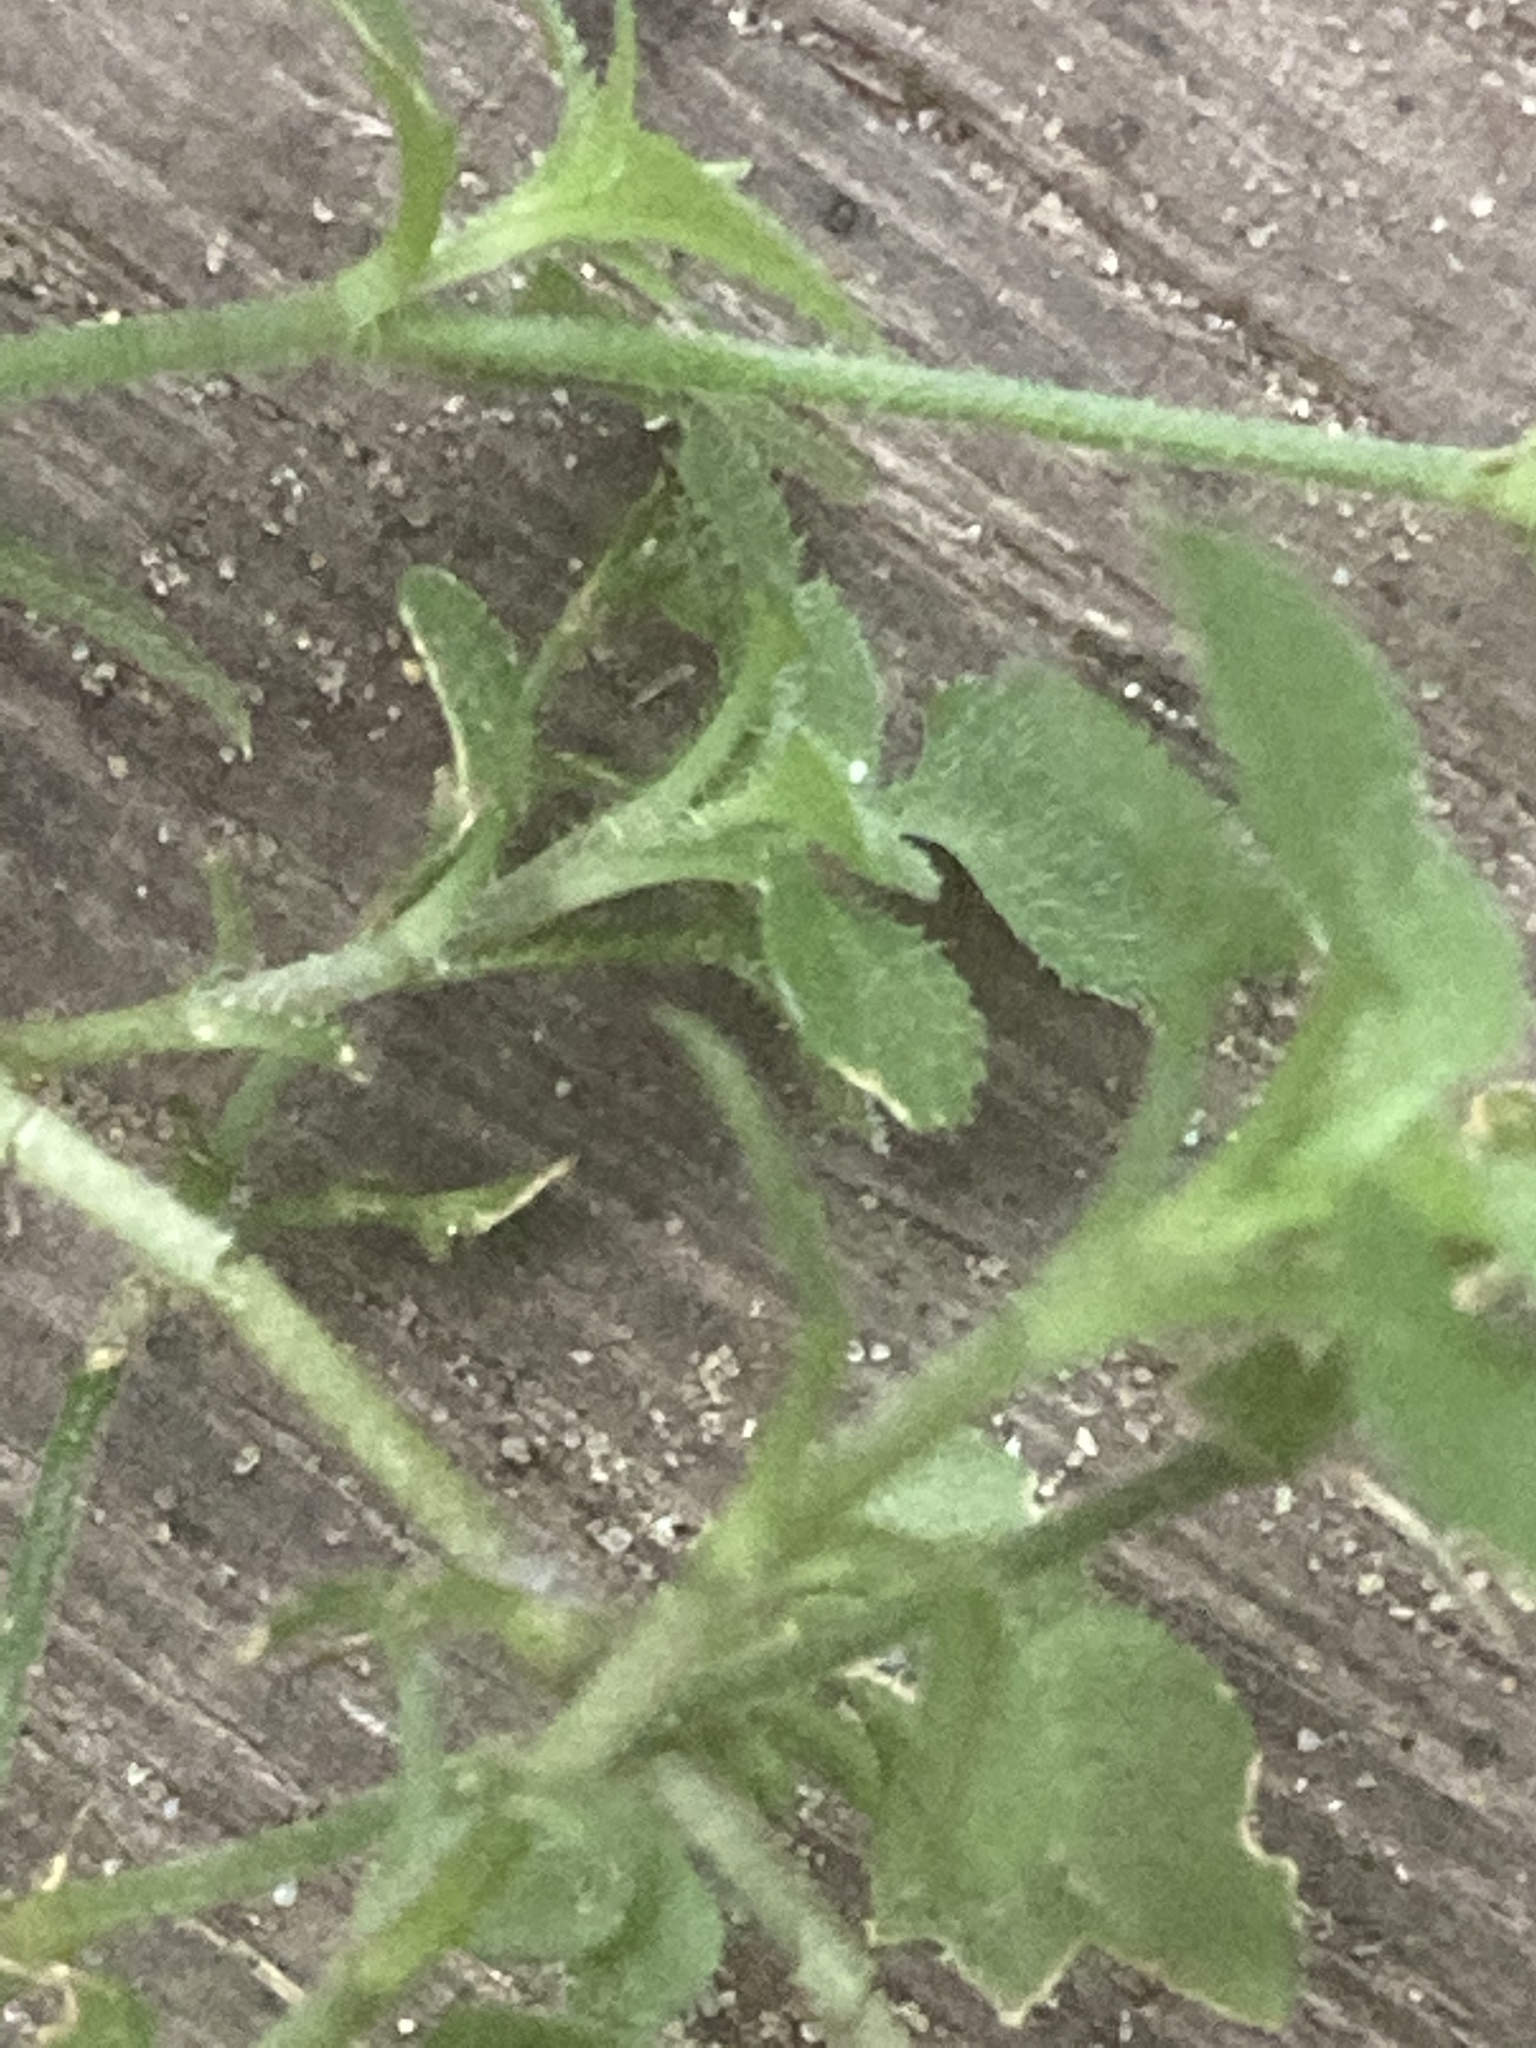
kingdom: Plantae
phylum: Tracheophyta
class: Magnoliopsida
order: Caryophyllales
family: Caryophyllaceae
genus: Moehringia
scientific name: Moehringia trinervia
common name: Three-nerved sandwort
